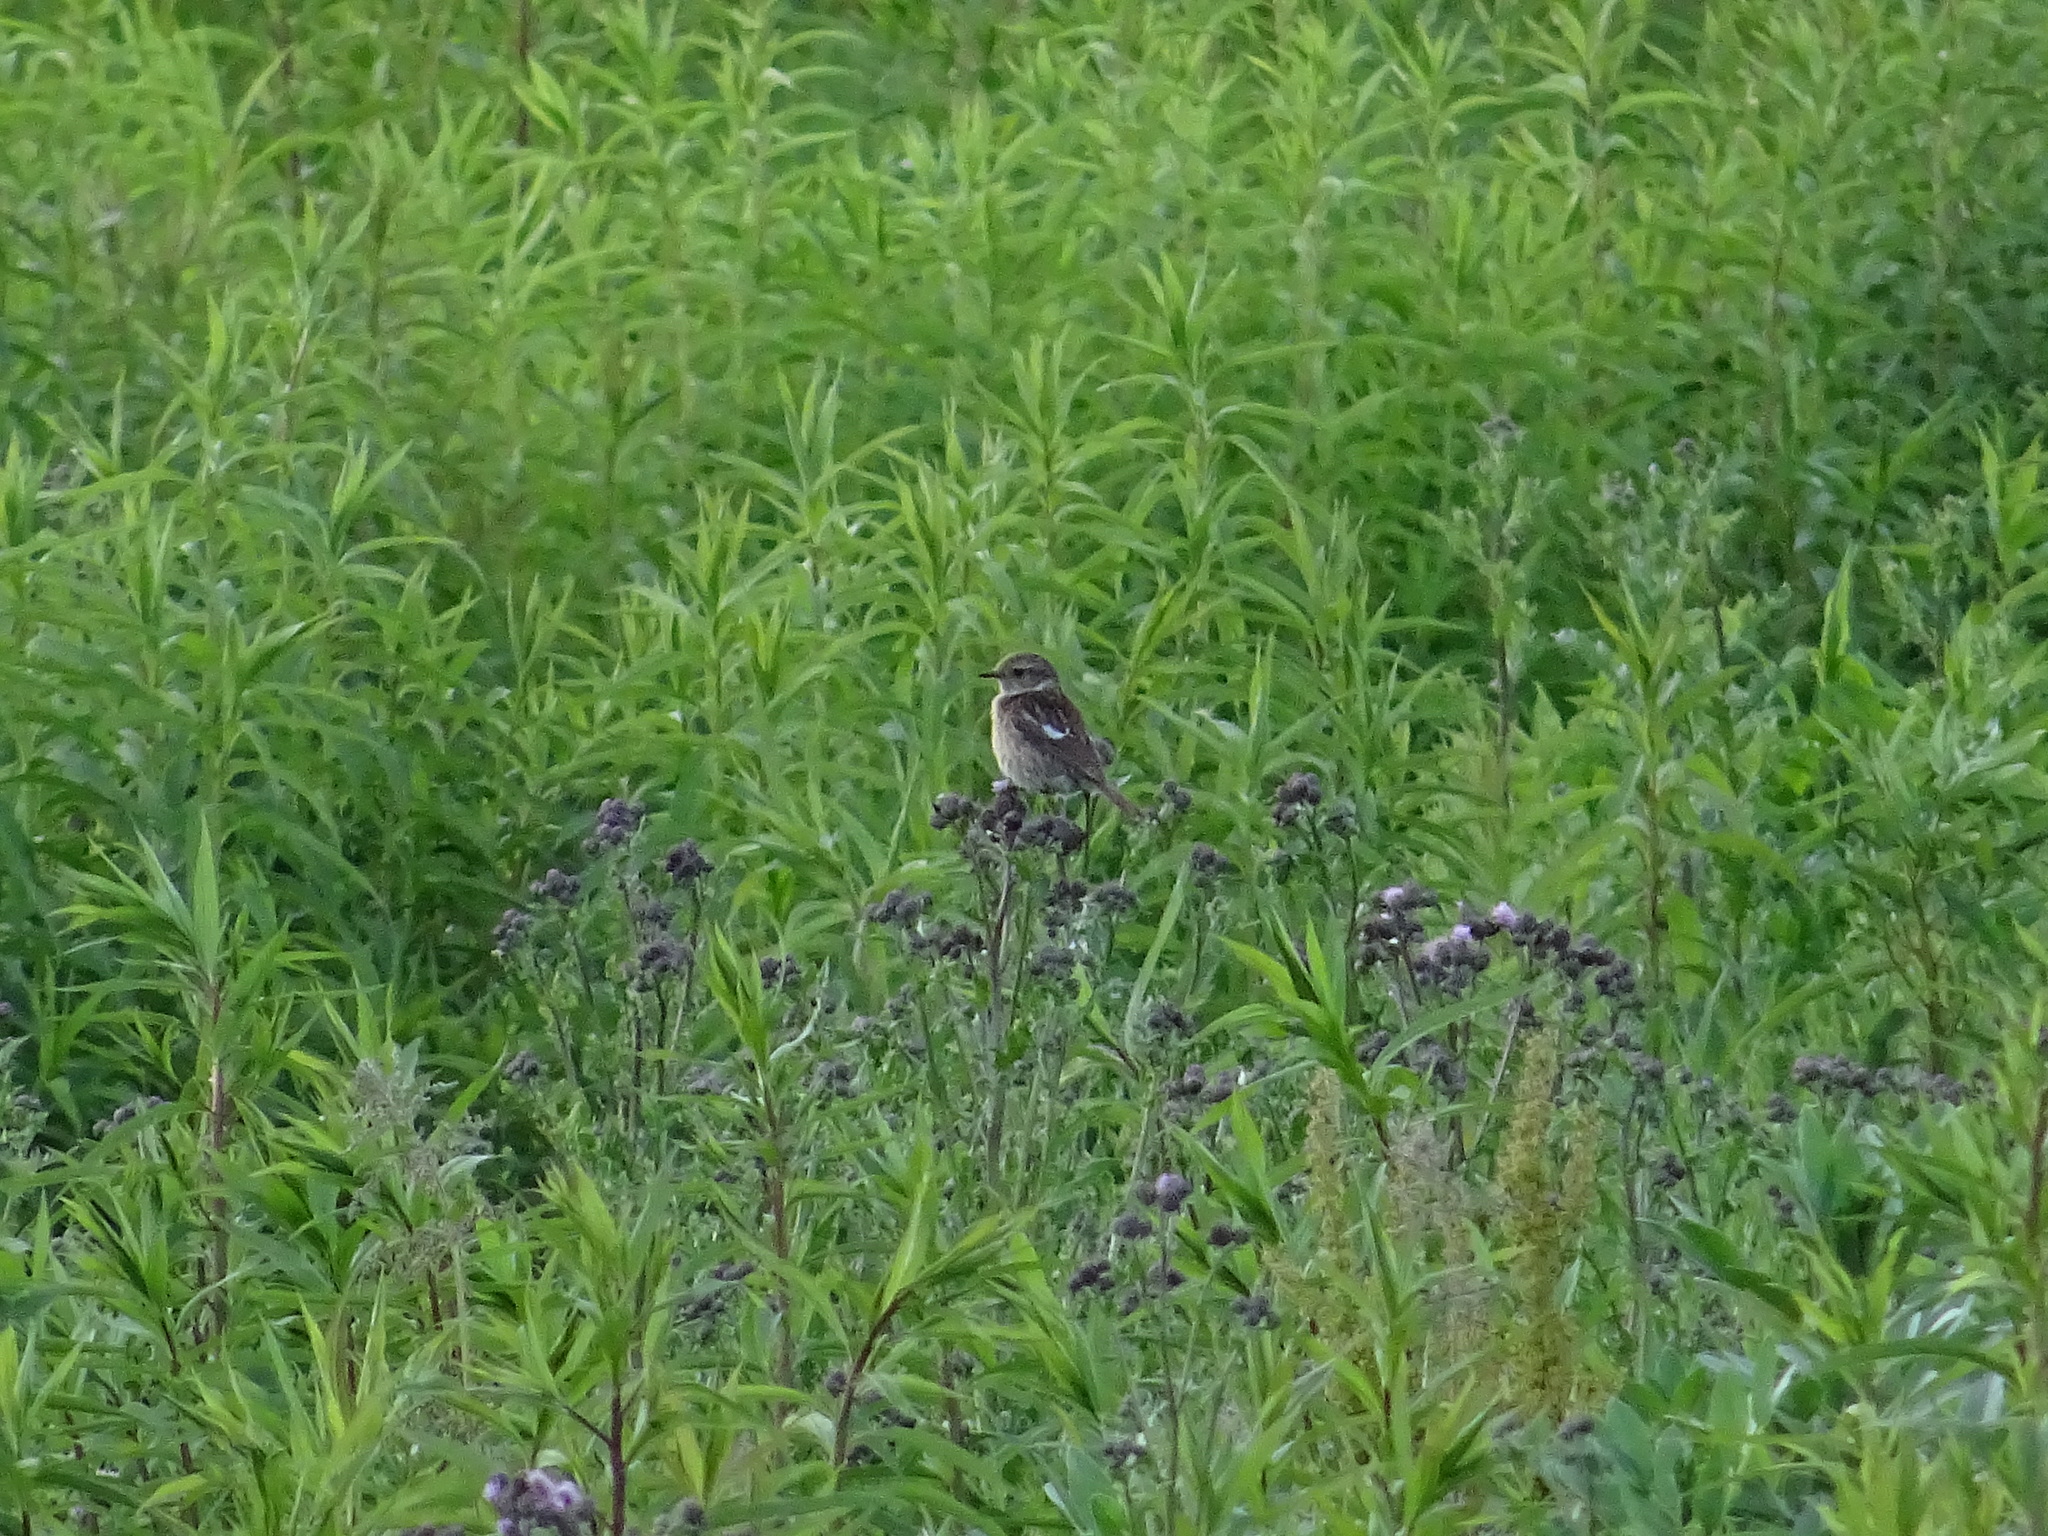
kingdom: Animalia
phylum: Chordata
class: Aves
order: Passeriformes
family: Muscicapidae
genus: Saxicola
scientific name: Saxicola rubicola
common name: European stonechat
